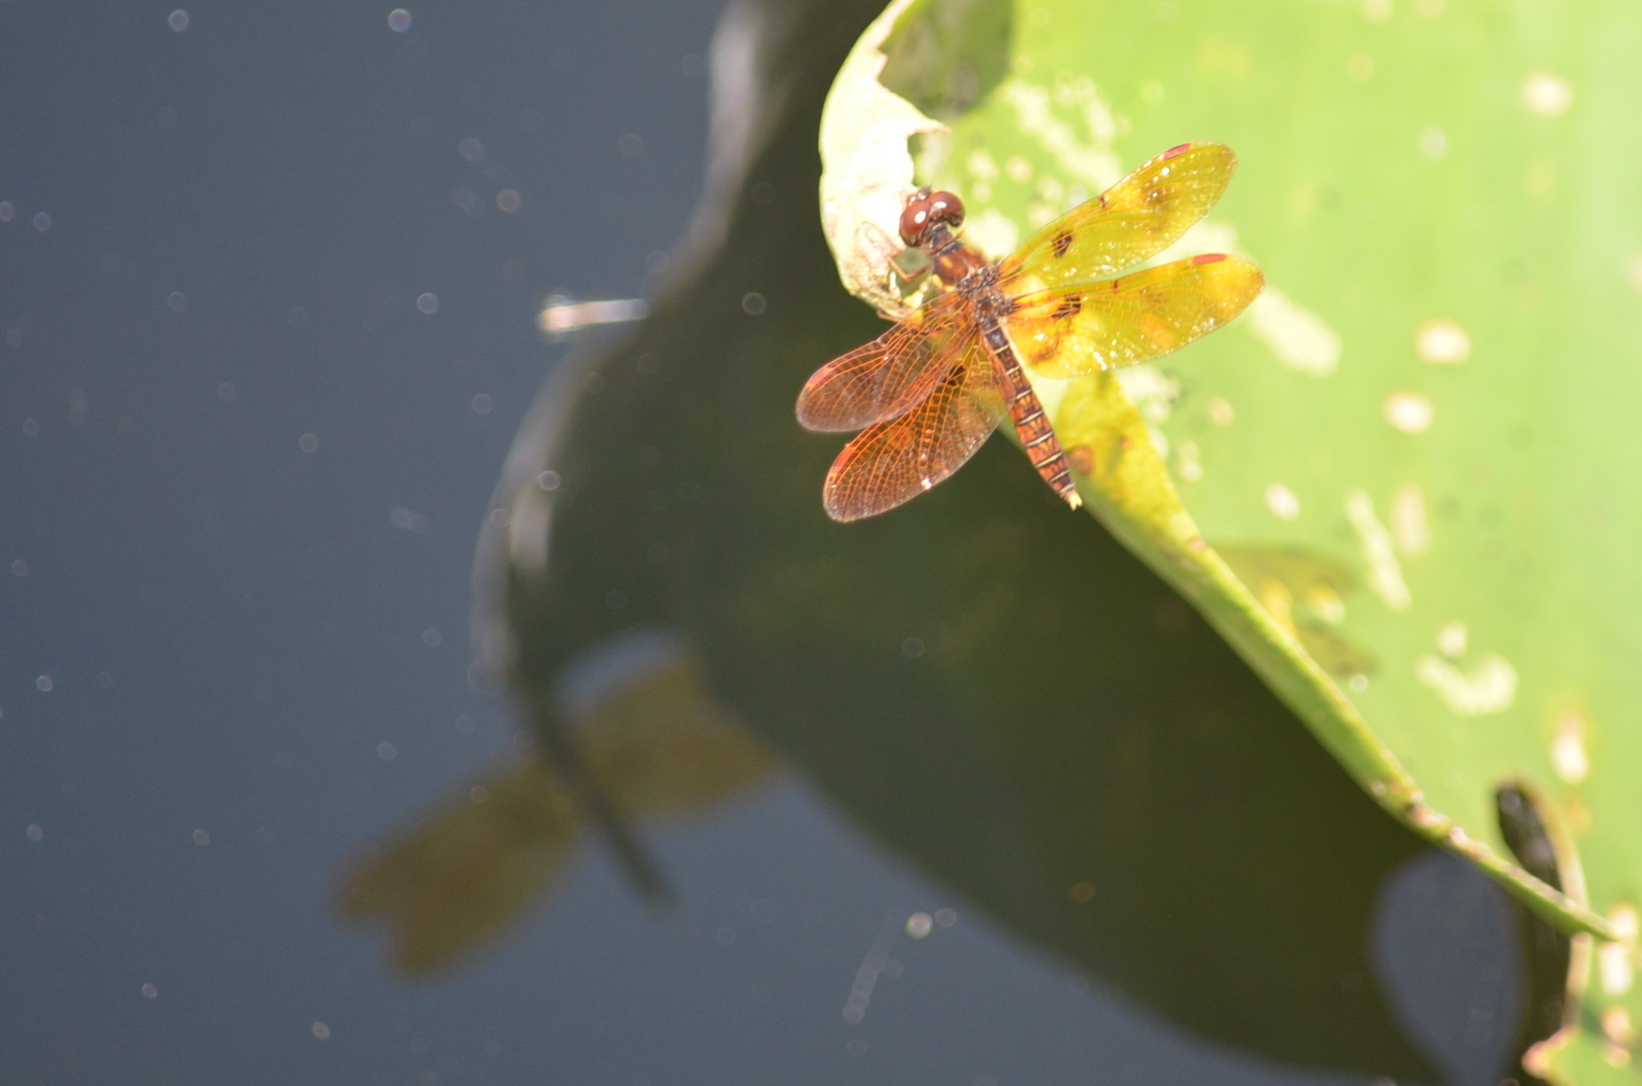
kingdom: Animalia
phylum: Arthropoda
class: Insecta
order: Odonata
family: Libellulidae
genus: Perithemis
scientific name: Perithemis tenera
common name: Eastern amberwing
